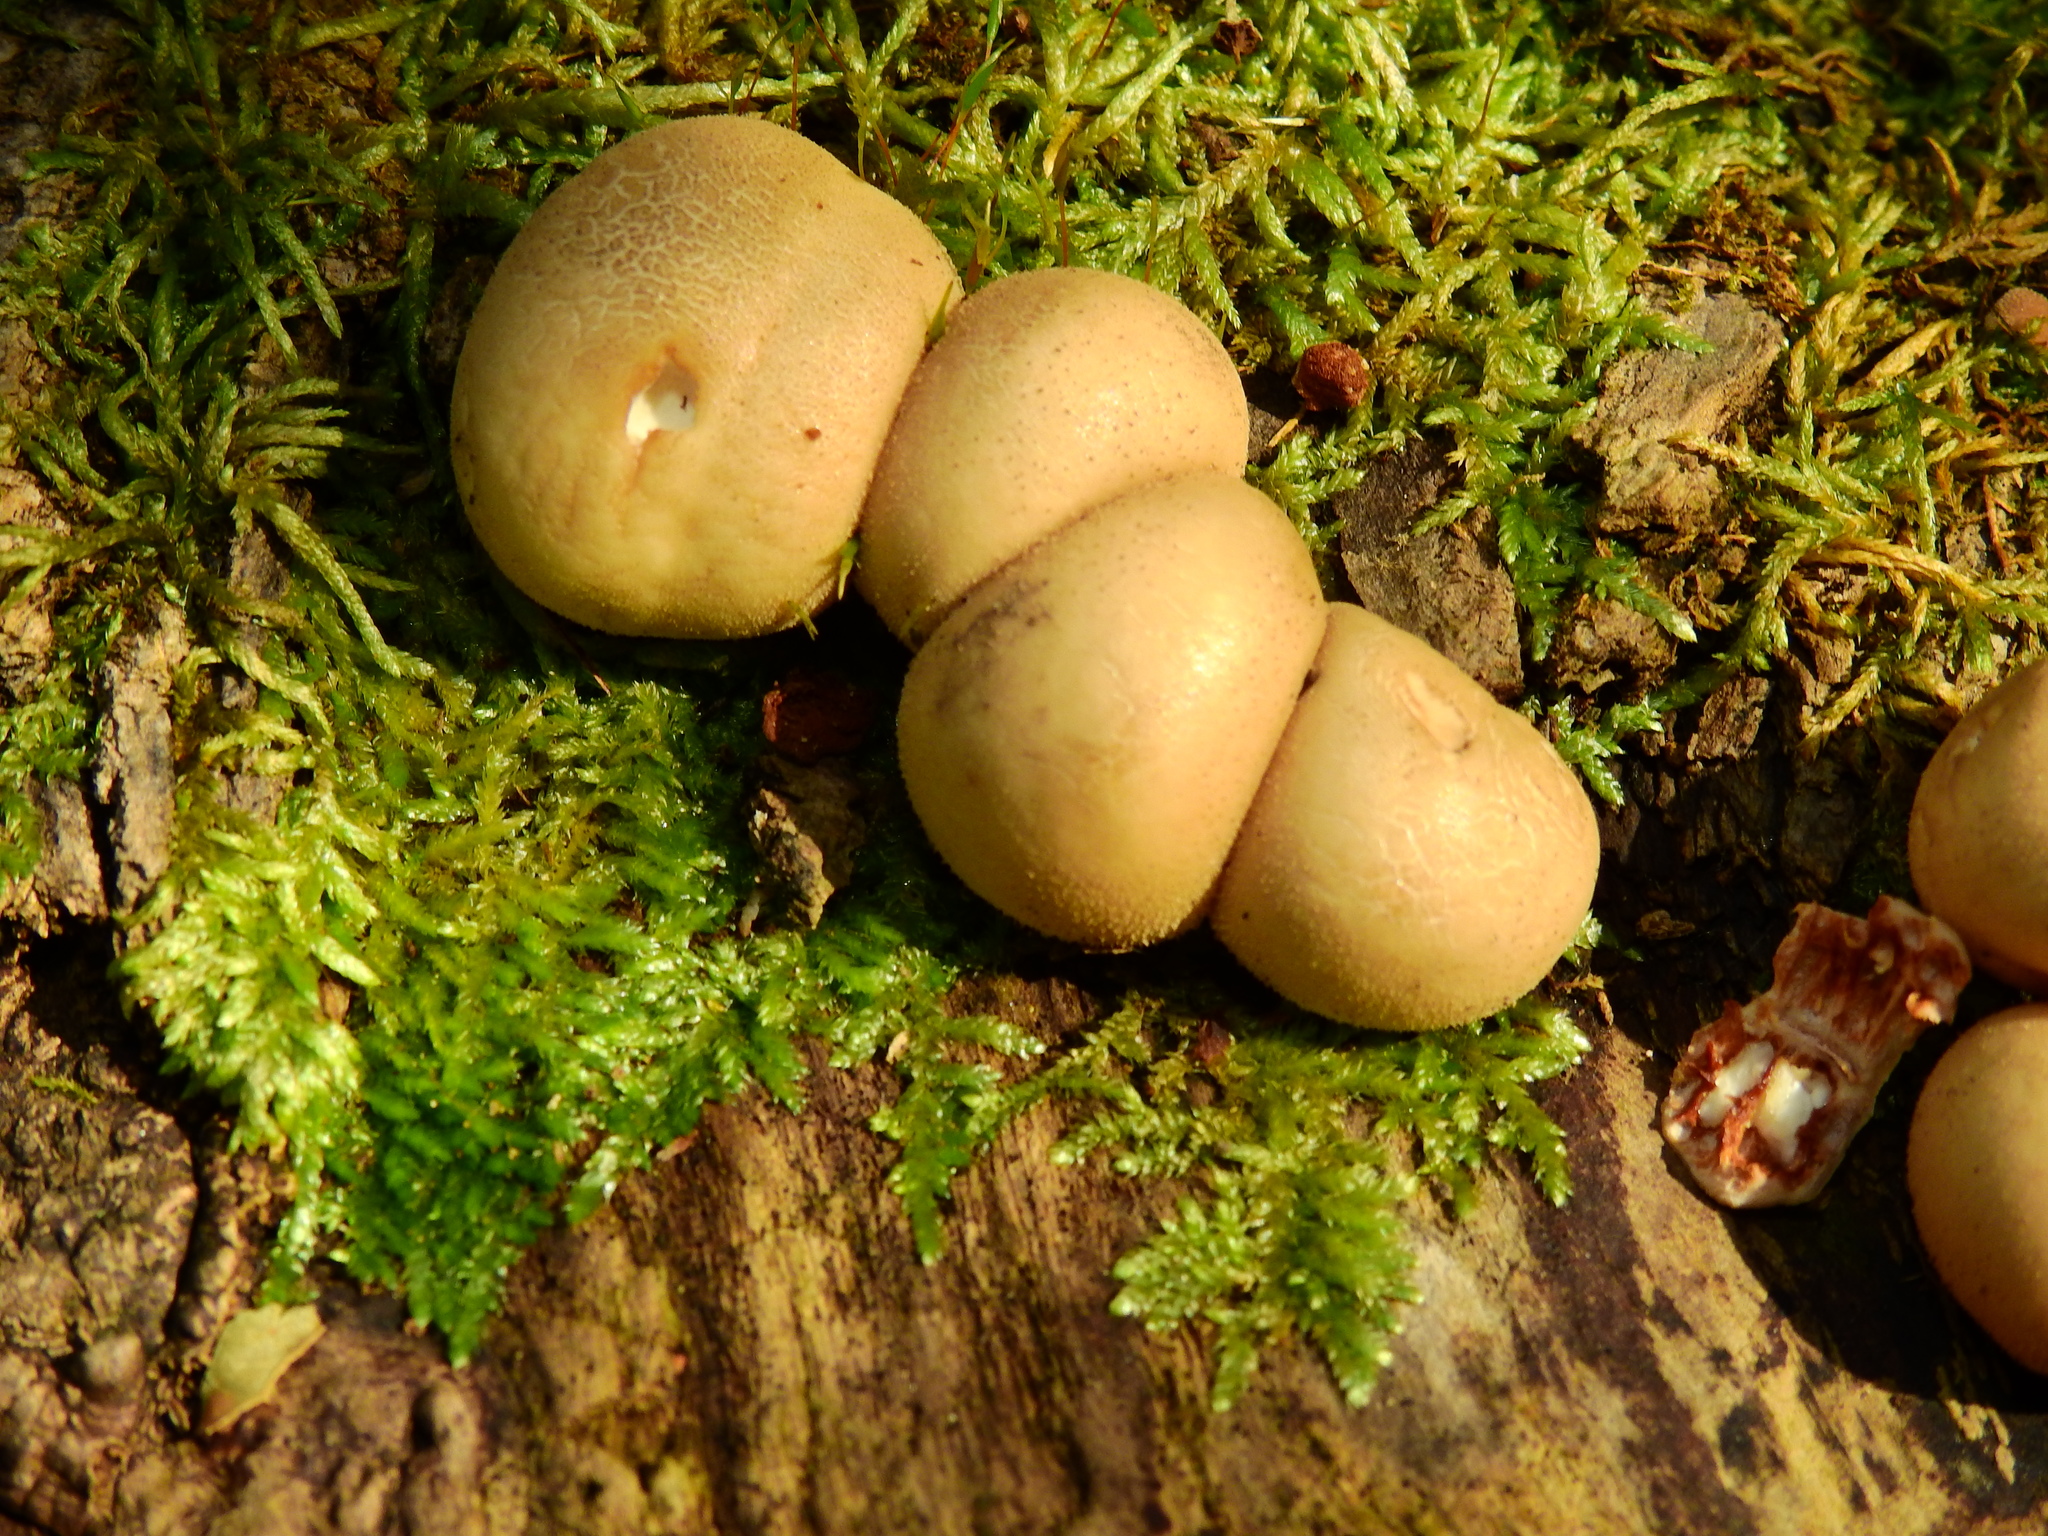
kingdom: Fungi
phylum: Basidiomycota
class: Agaricomycetes
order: Agaricales
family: Lycoperdaceae
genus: Apioperdon
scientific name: Apioperdon pyriforme
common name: Pear-shaped puffball
